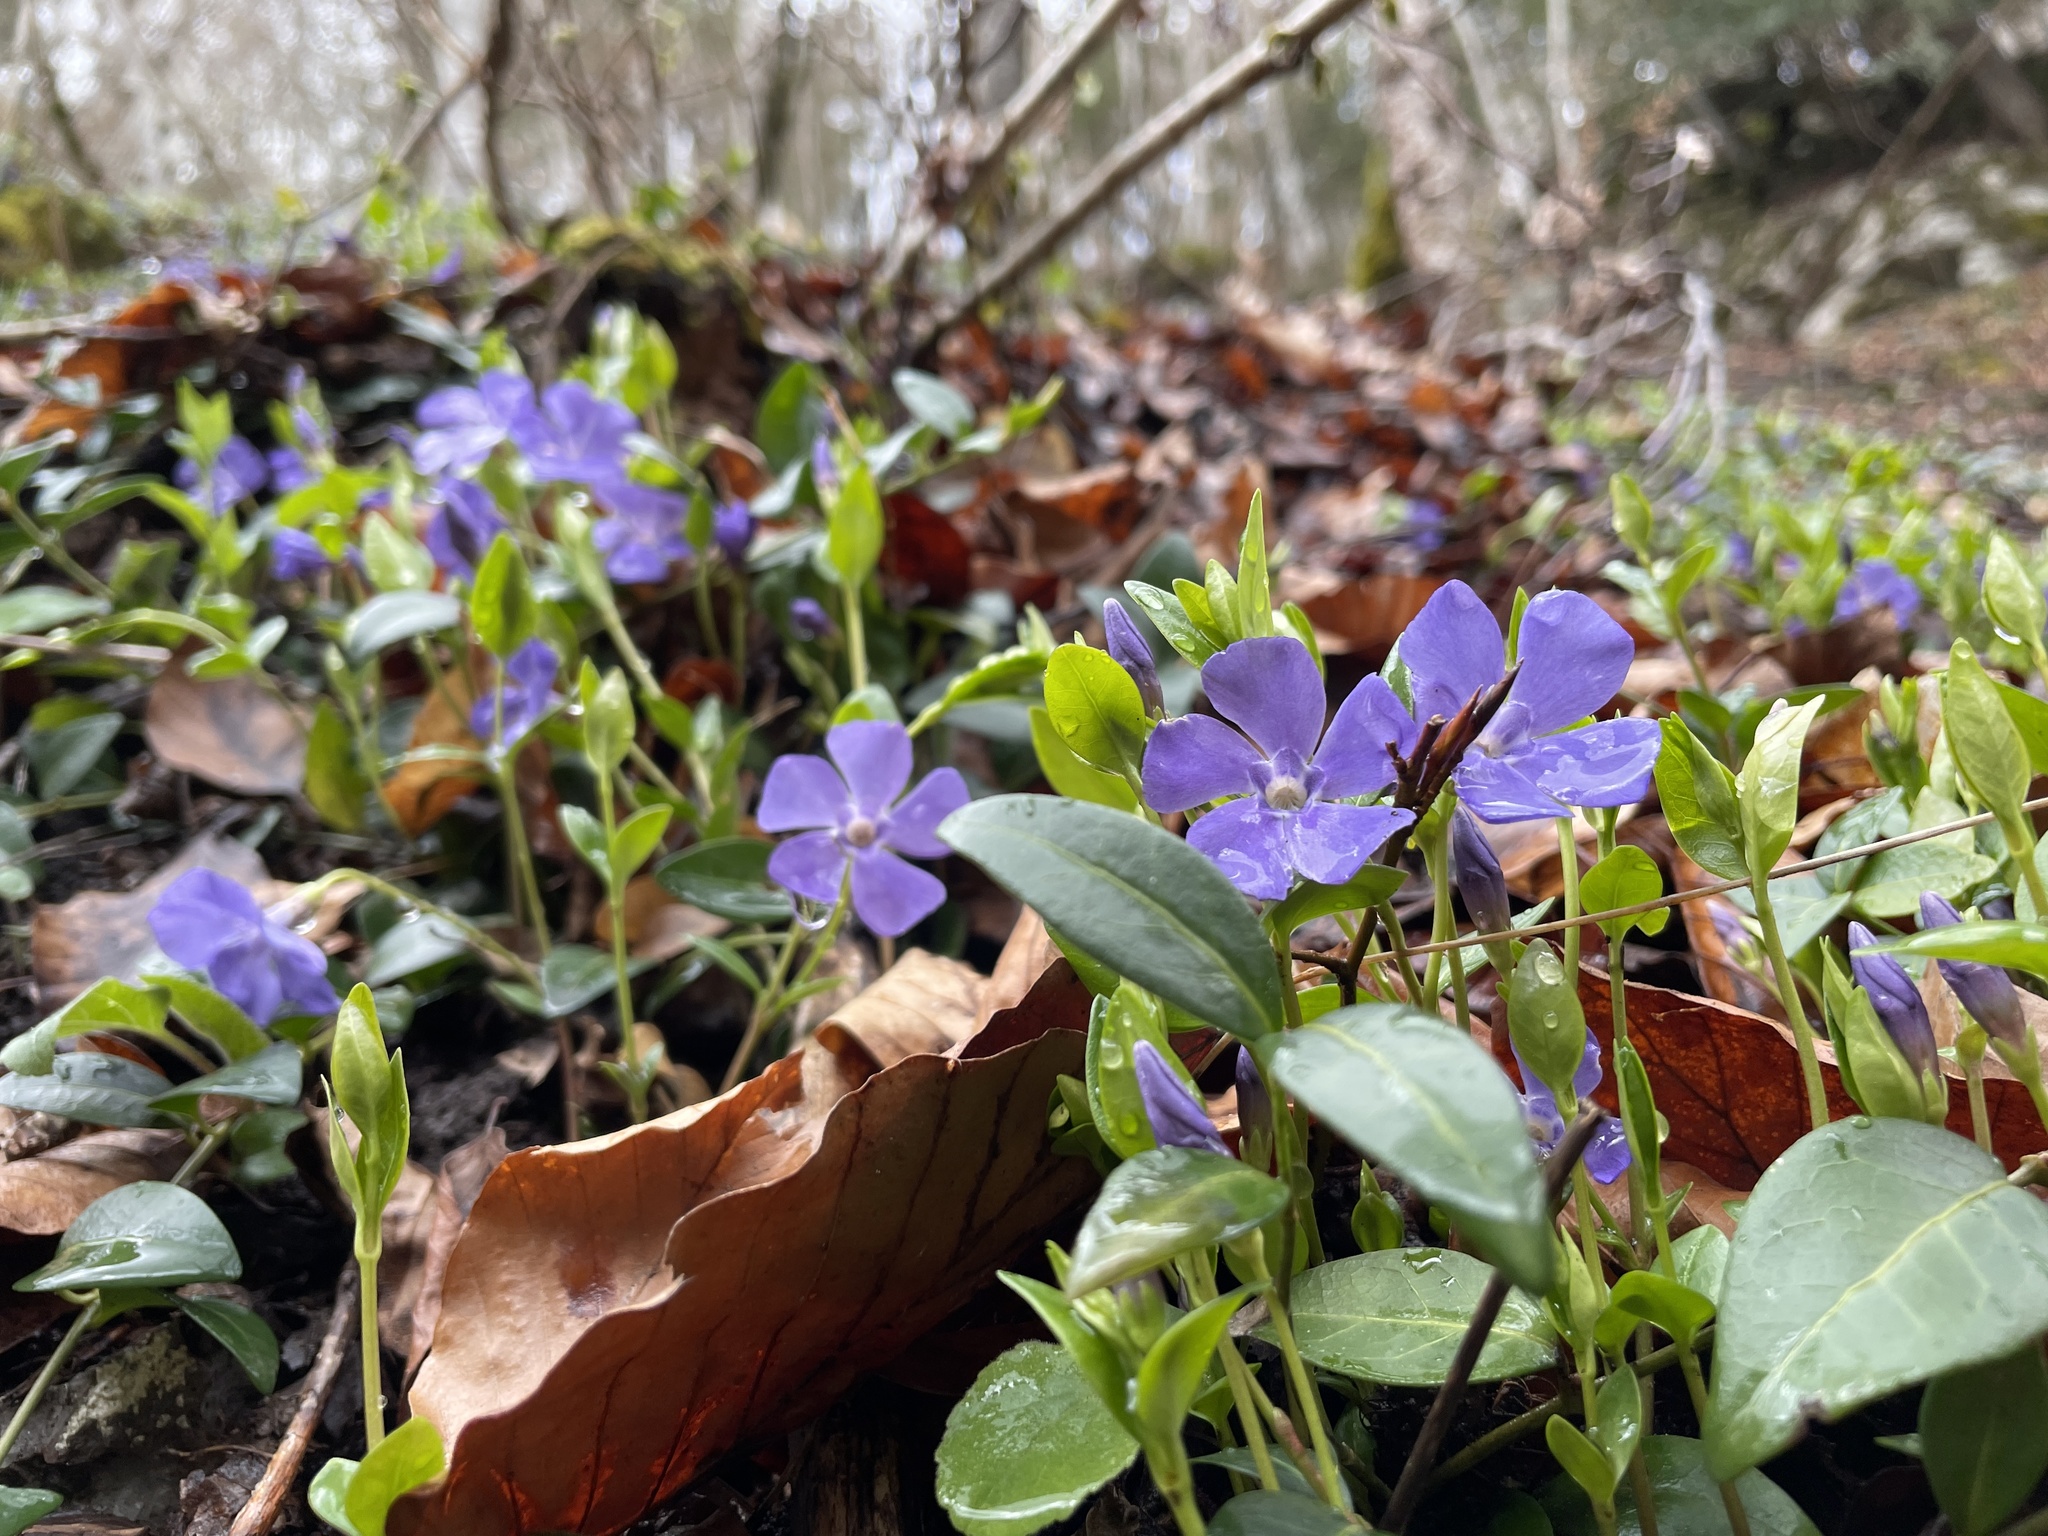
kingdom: Plantae
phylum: Tracheophyta
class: Magnoliopsida
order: Gentianales
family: Apocynaceae
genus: Vinca
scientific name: Vinca minor
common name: Lesser periwinkle
